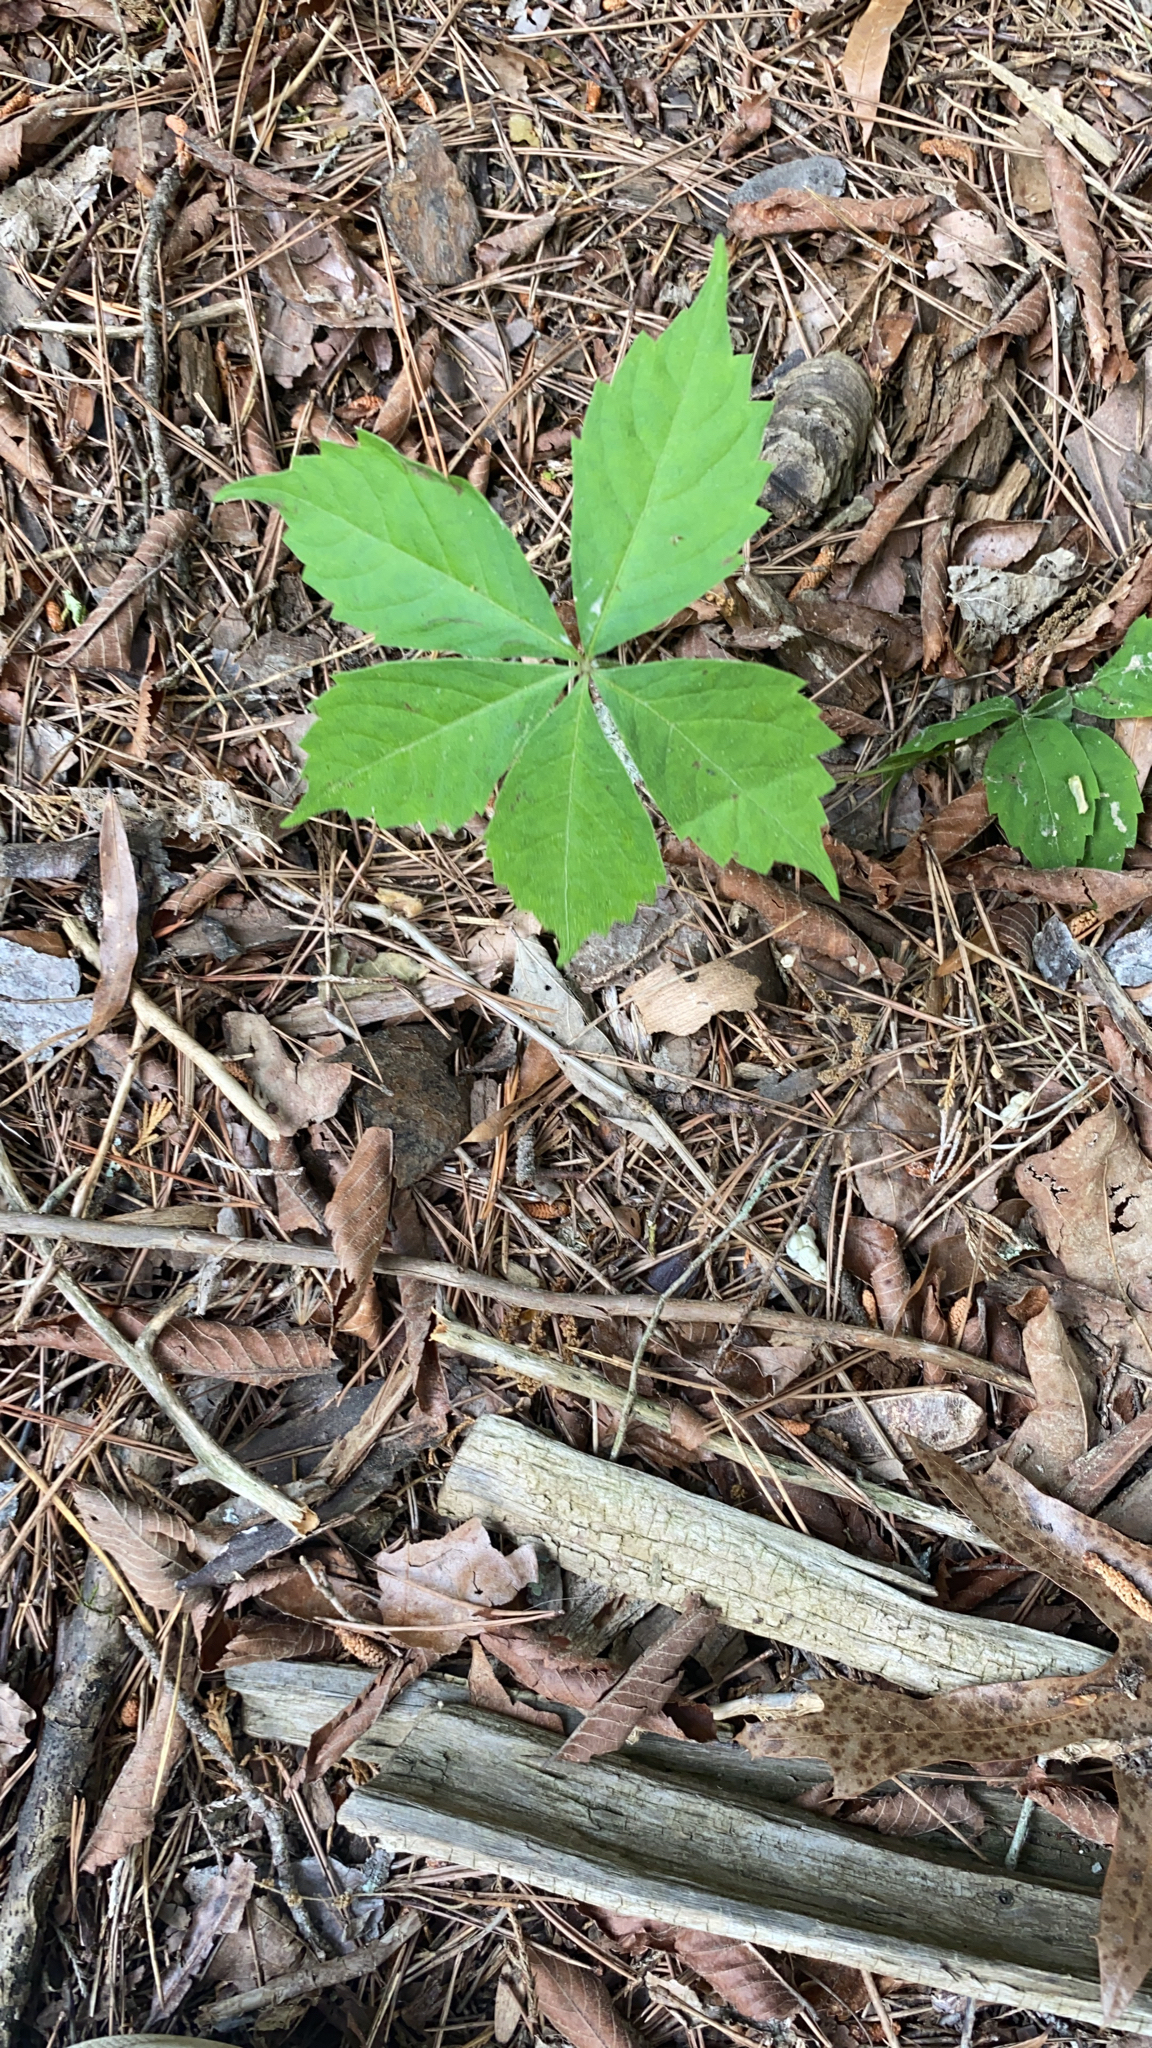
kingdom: Plantae
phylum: Tracheophyta
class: Magnoliopsida
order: Vitales
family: Vitaceae
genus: Parthenocissus
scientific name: Parthenocissus quinquefolia
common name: Virginia-creeper
